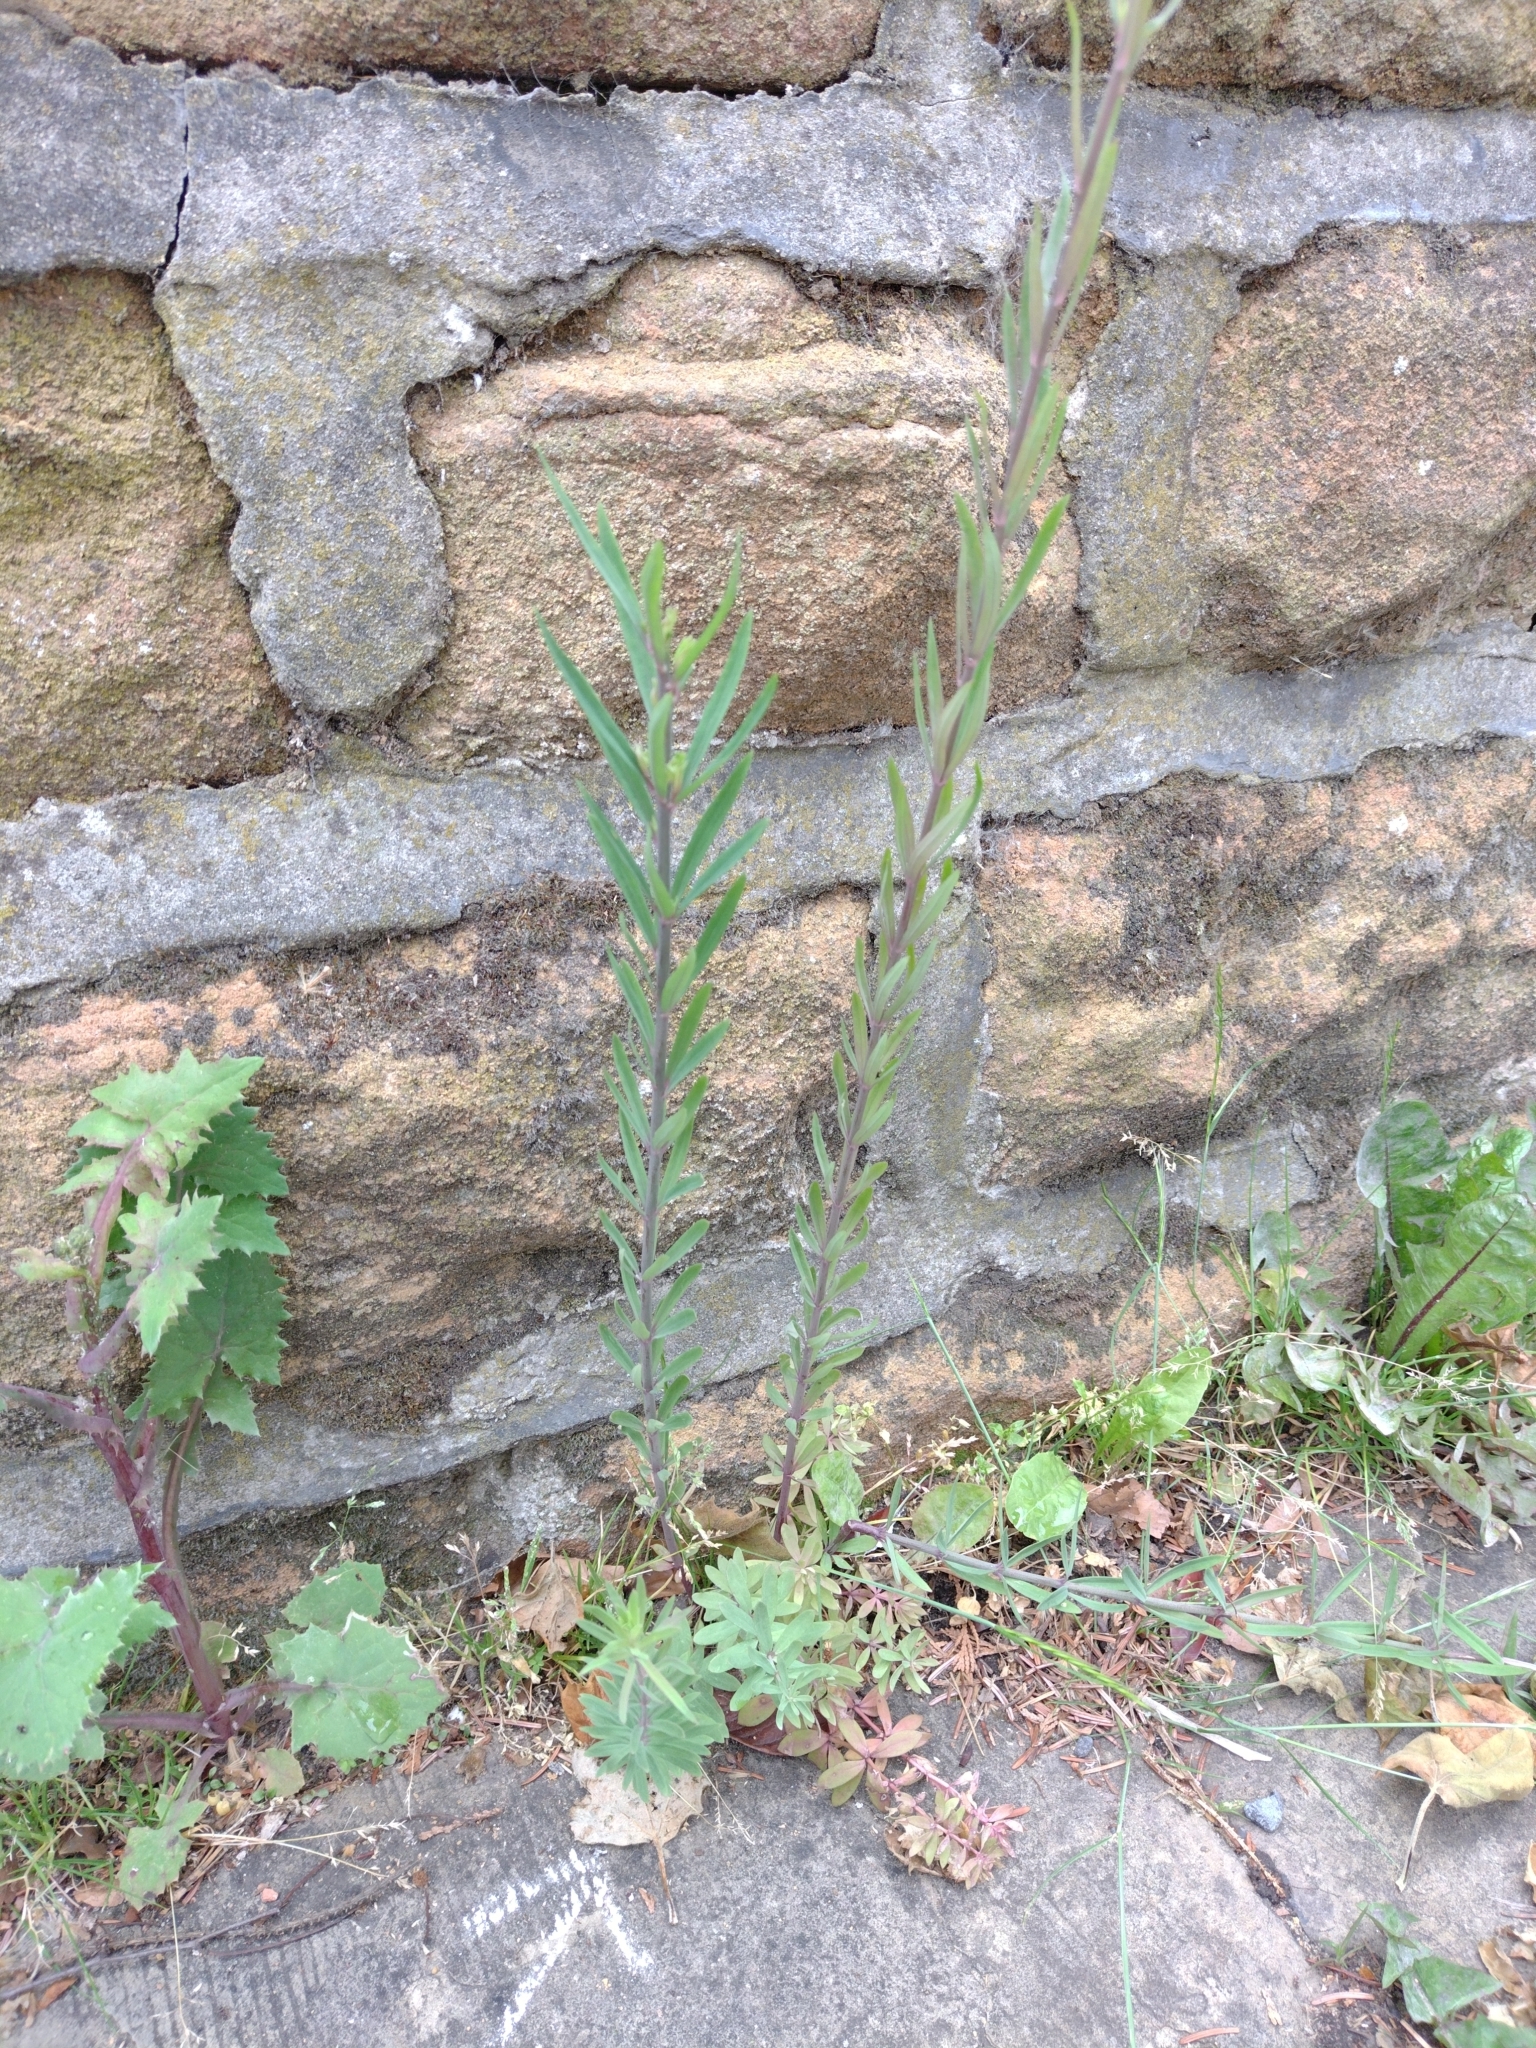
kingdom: Plantae
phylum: Tracheophyta
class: Magnoliopsida
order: Lamiales
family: Plantaginaceae
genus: Linaria
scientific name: Linaria purpurea
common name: Purple toadflax
